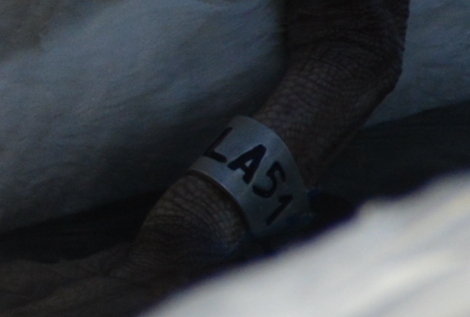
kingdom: Animalia
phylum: Chordata
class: Aves
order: Anseriformes
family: Anatidae
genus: Cygnus
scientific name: Cygnus olor
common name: Mute swan
